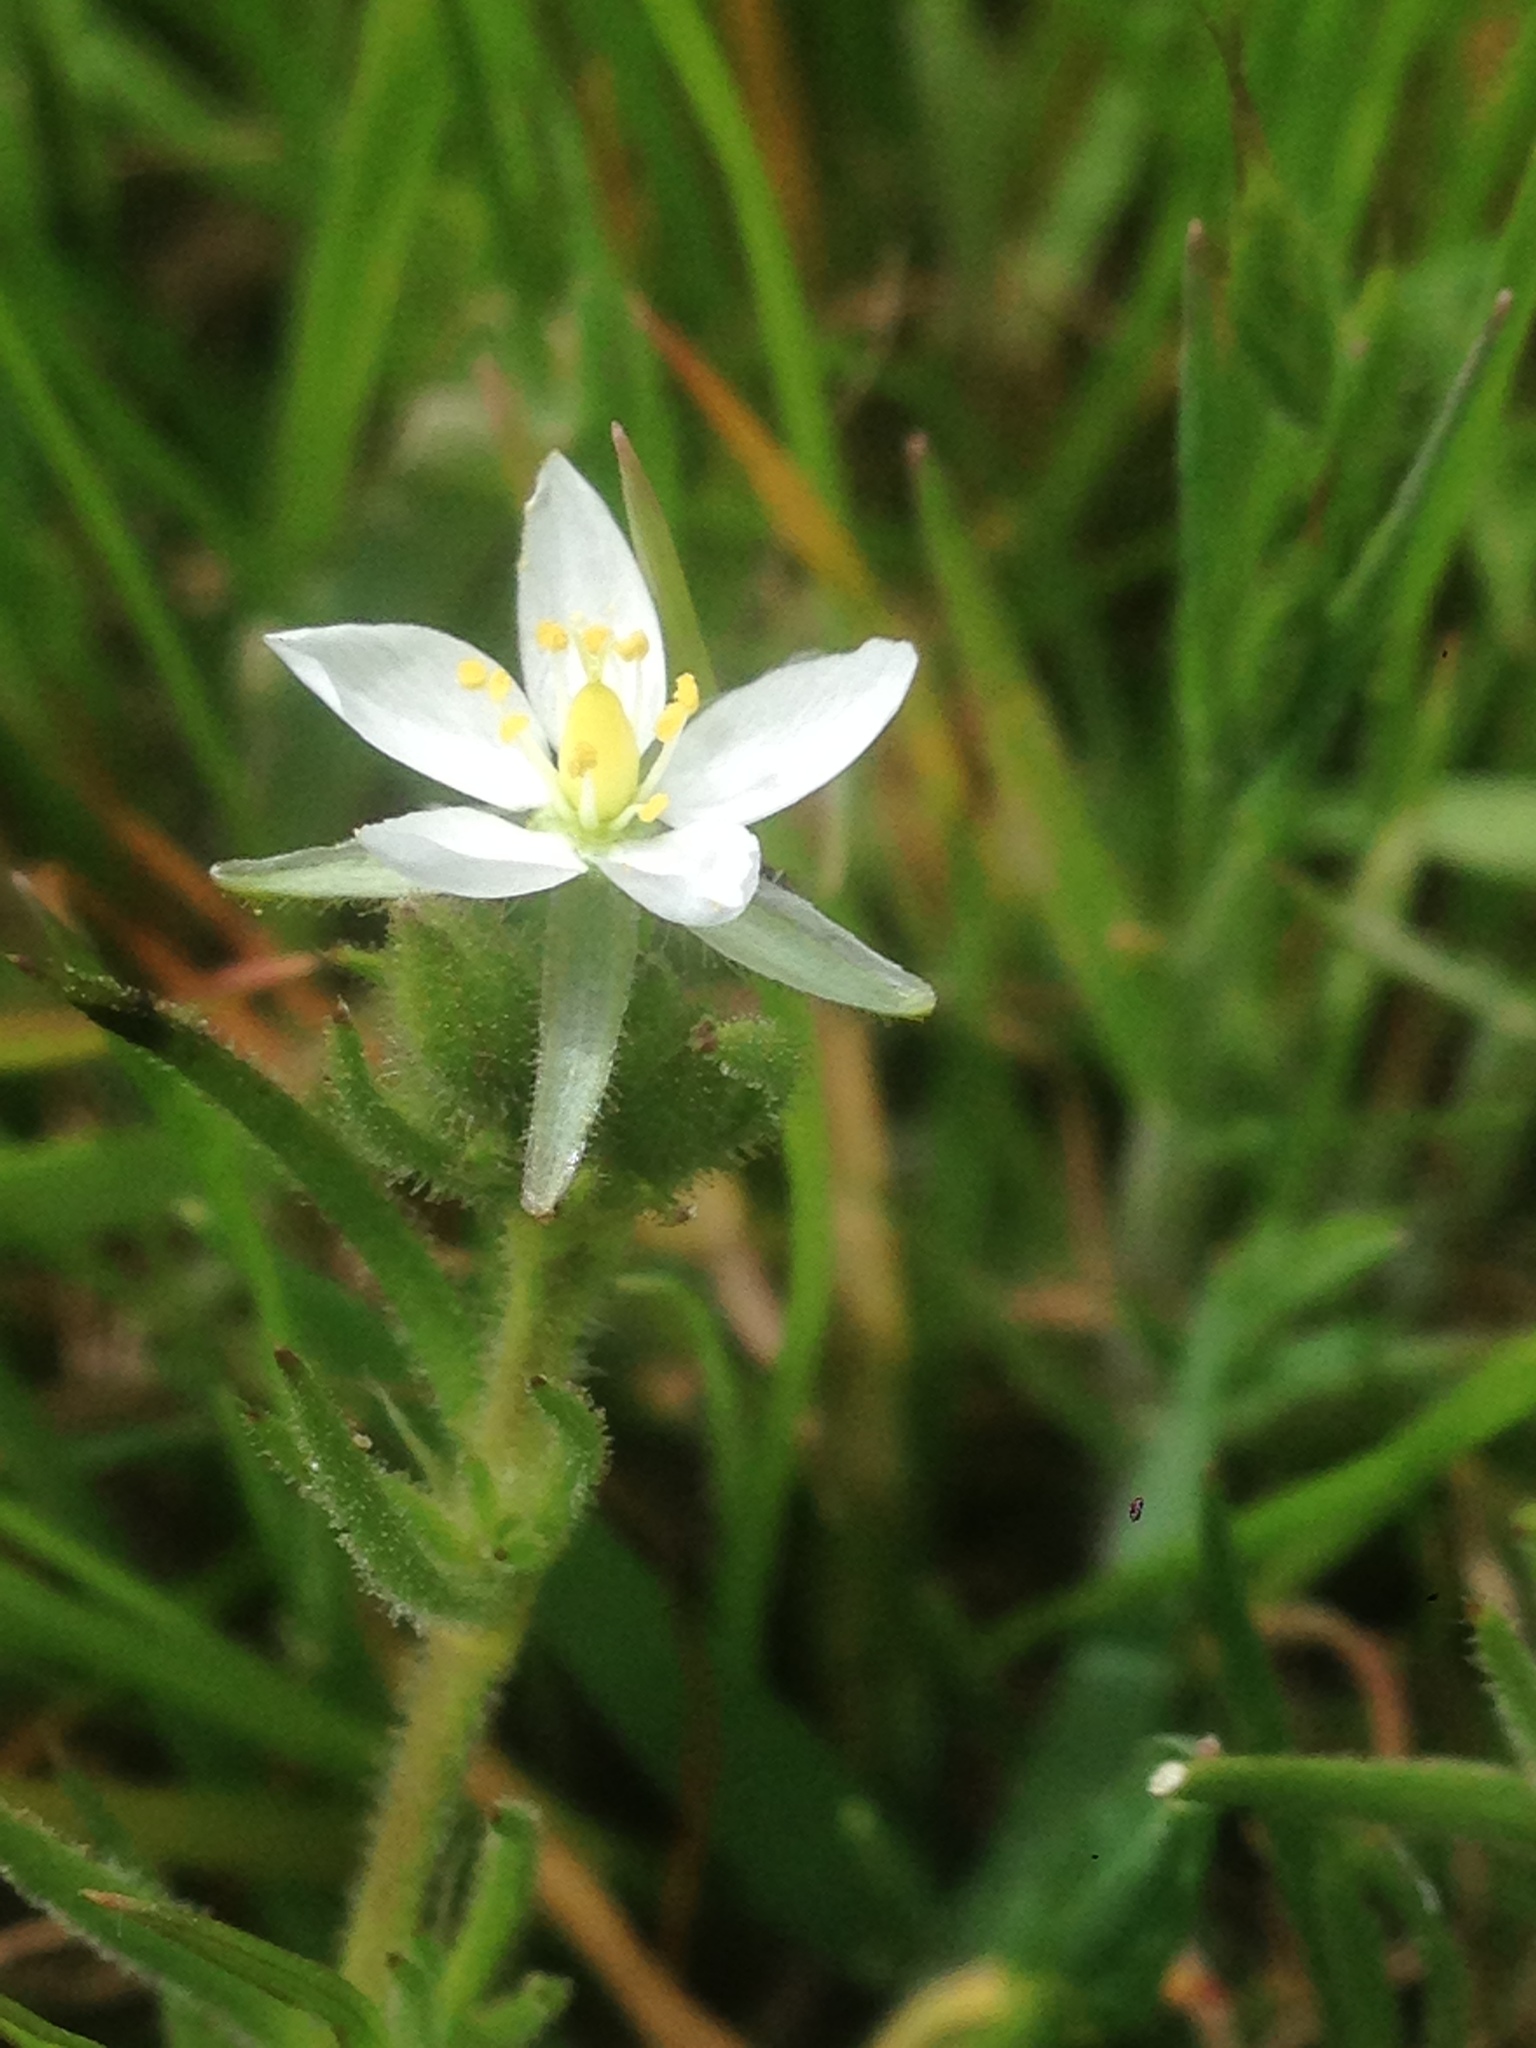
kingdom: Plantae
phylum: Tracheophyta
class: Magnoliopsida
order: Caryophyllales
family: Caryophyllaceae
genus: Spergularia
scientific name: Spergularia villosa
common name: Hairy sandspurry
